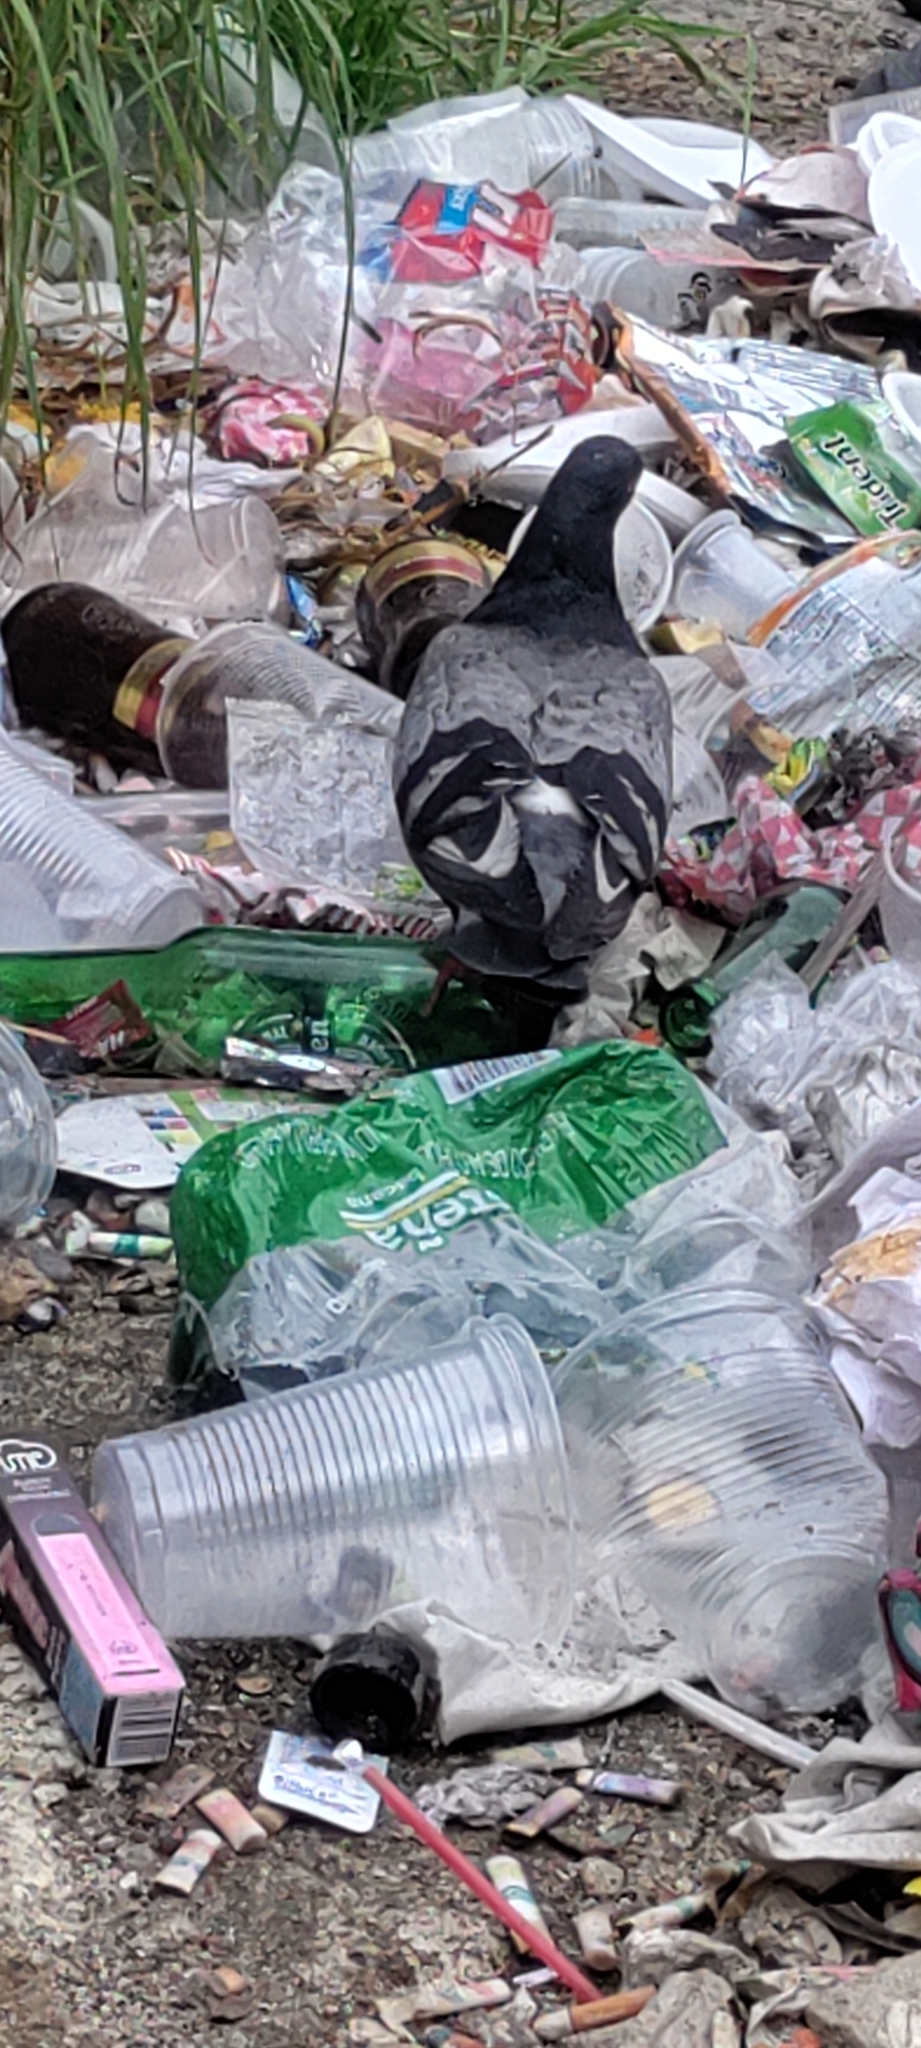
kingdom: Animalia
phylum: Chordata
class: Aves
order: Columbiformes
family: Columbidae
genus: Columba
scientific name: Columba livia
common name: Rock pigeon
